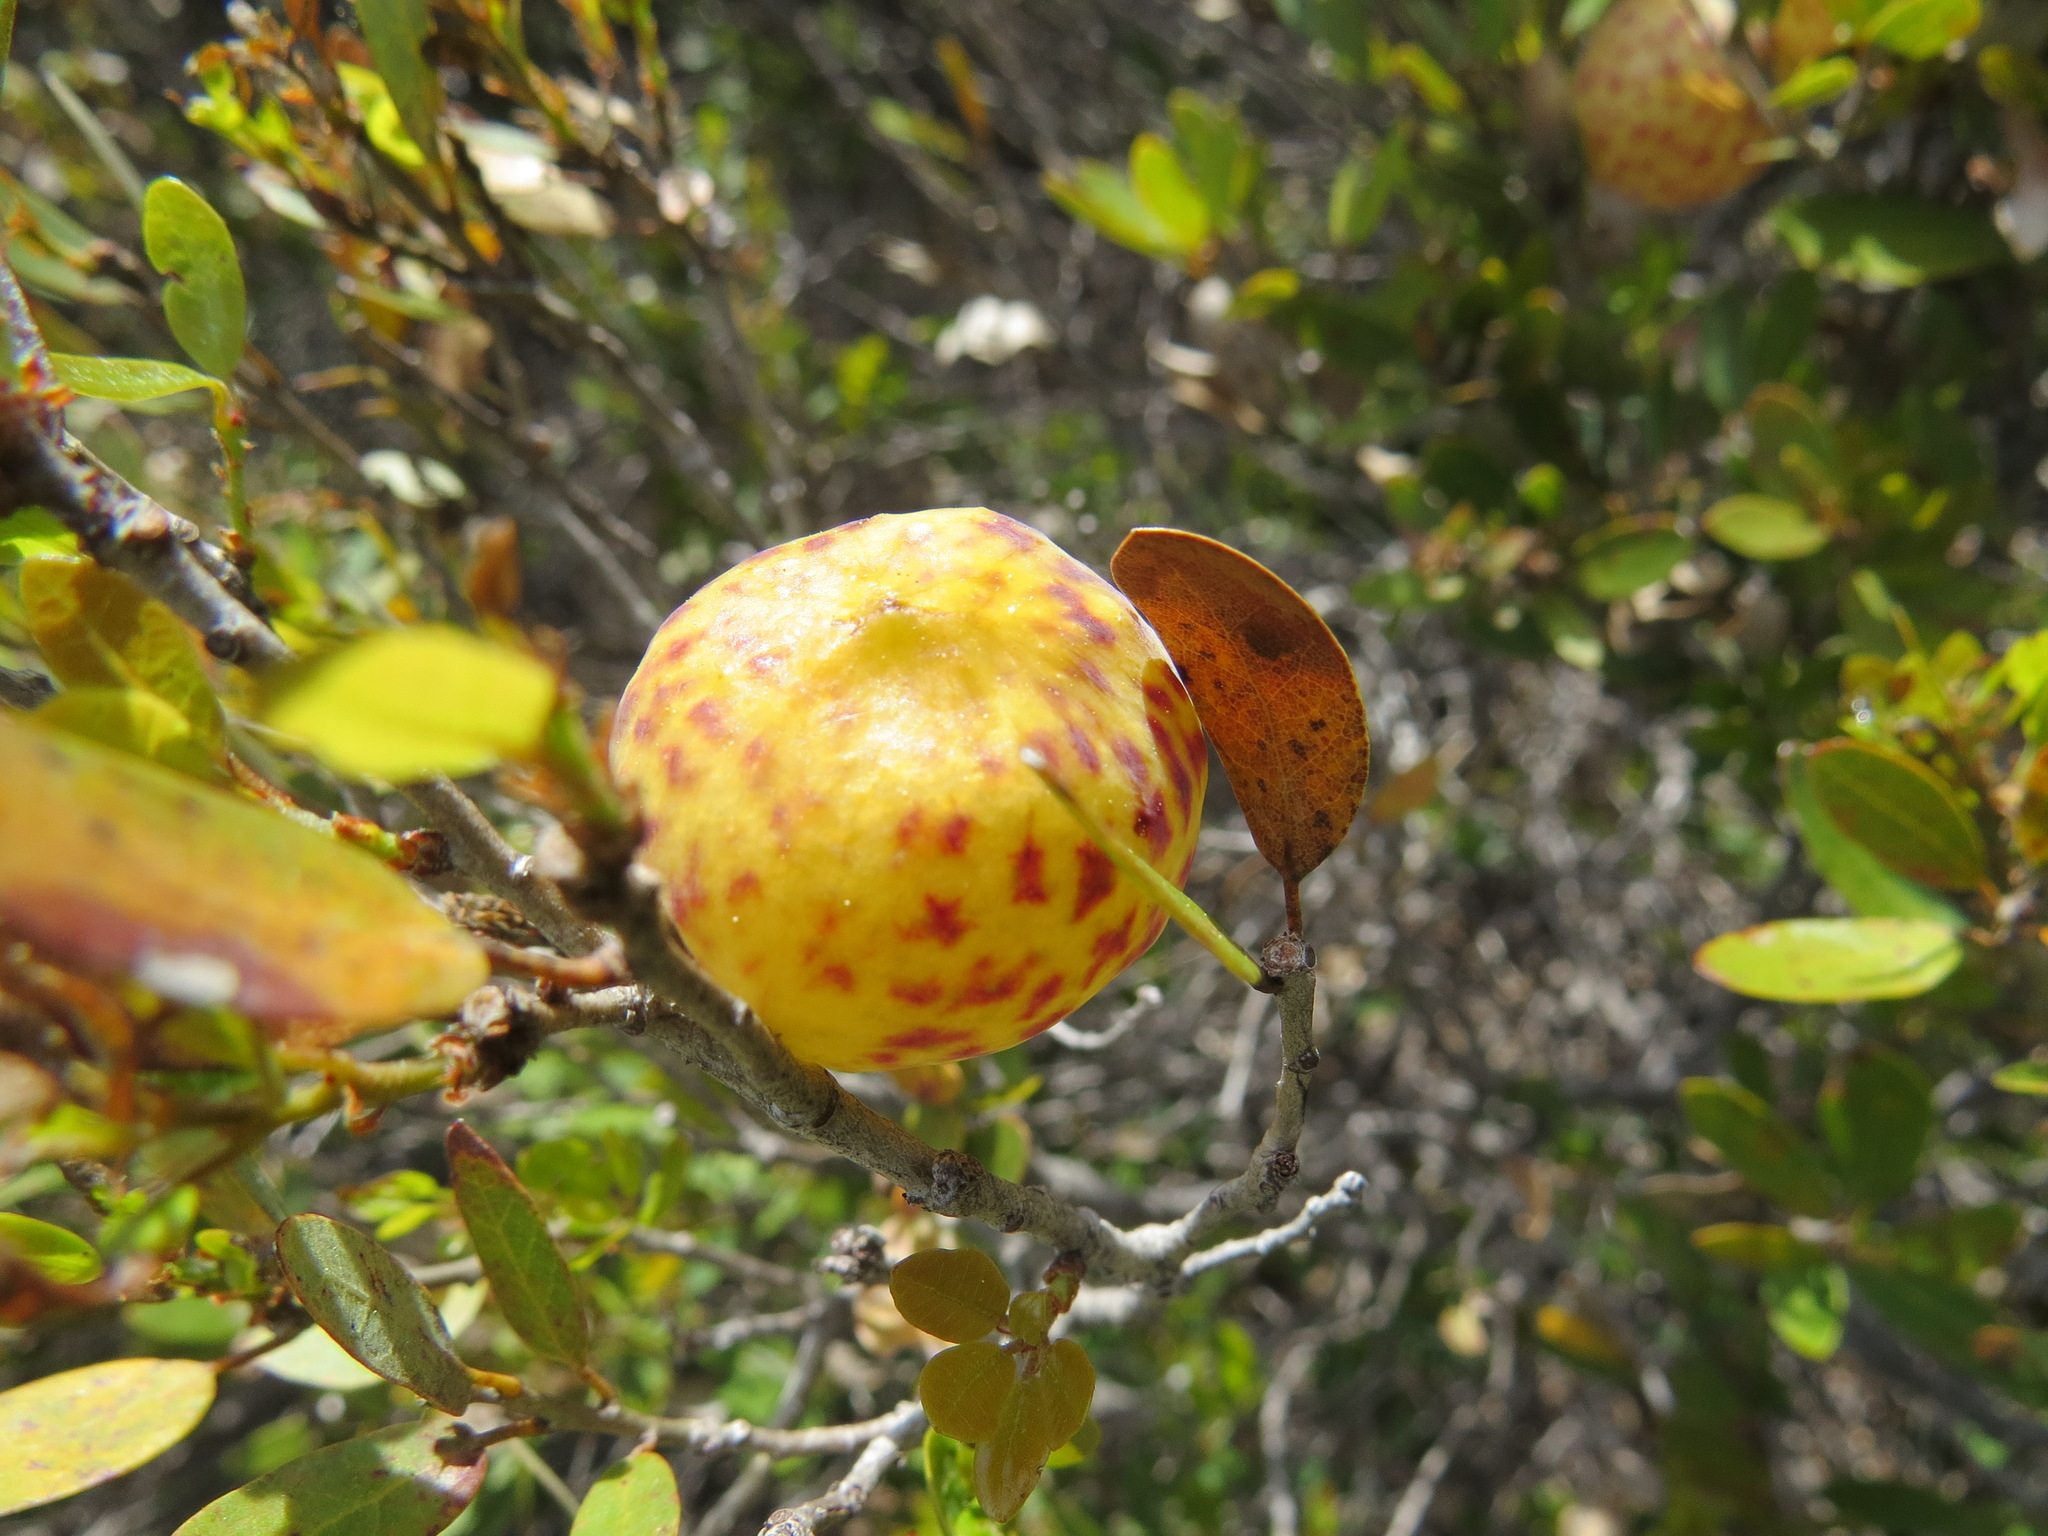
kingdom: Animalia
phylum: Arthropoda
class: Insecta
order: Hymenoptera
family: Cynipidae
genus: Andricus
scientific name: Andricus
